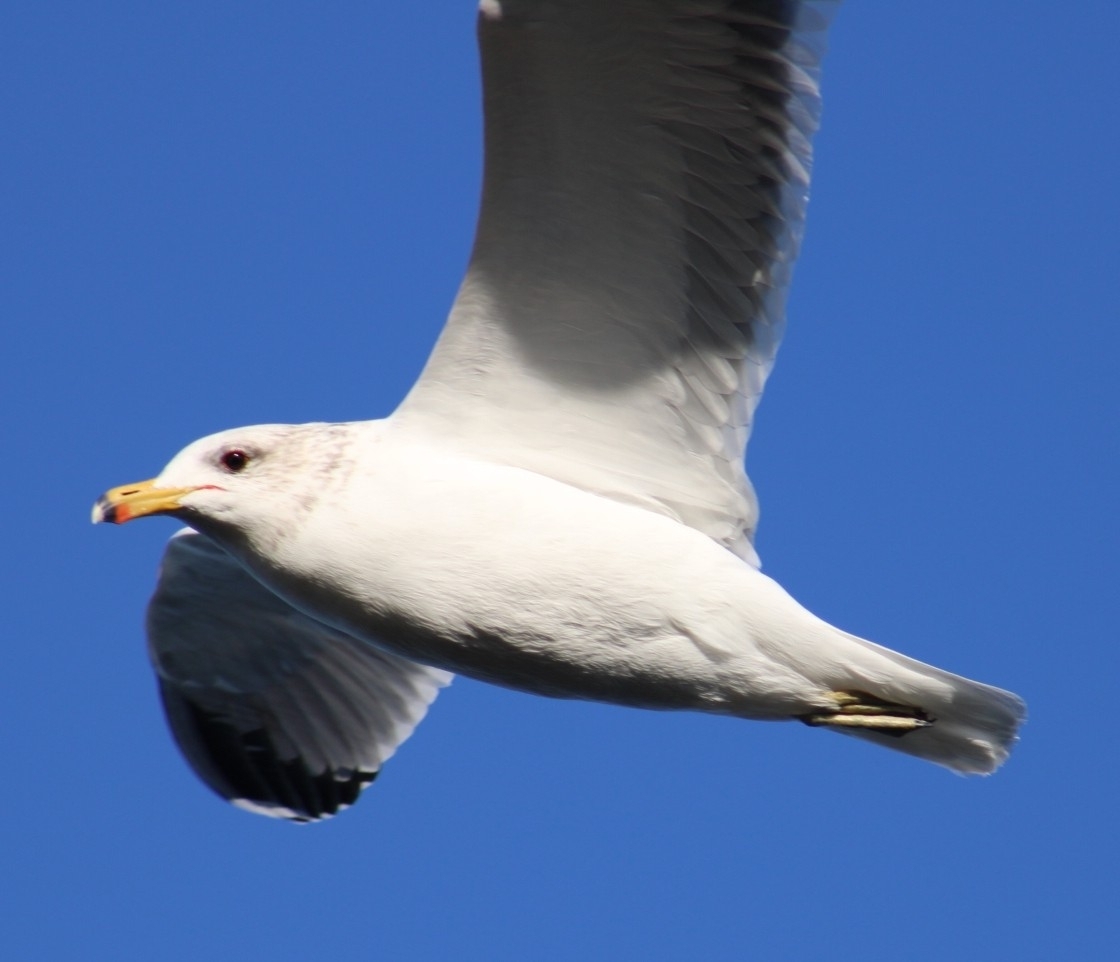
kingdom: Animalia
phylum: Chordata
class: Aves
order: Charadriiformes
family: Laridae
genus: Larus
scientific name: Larus californicus
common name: California gull
